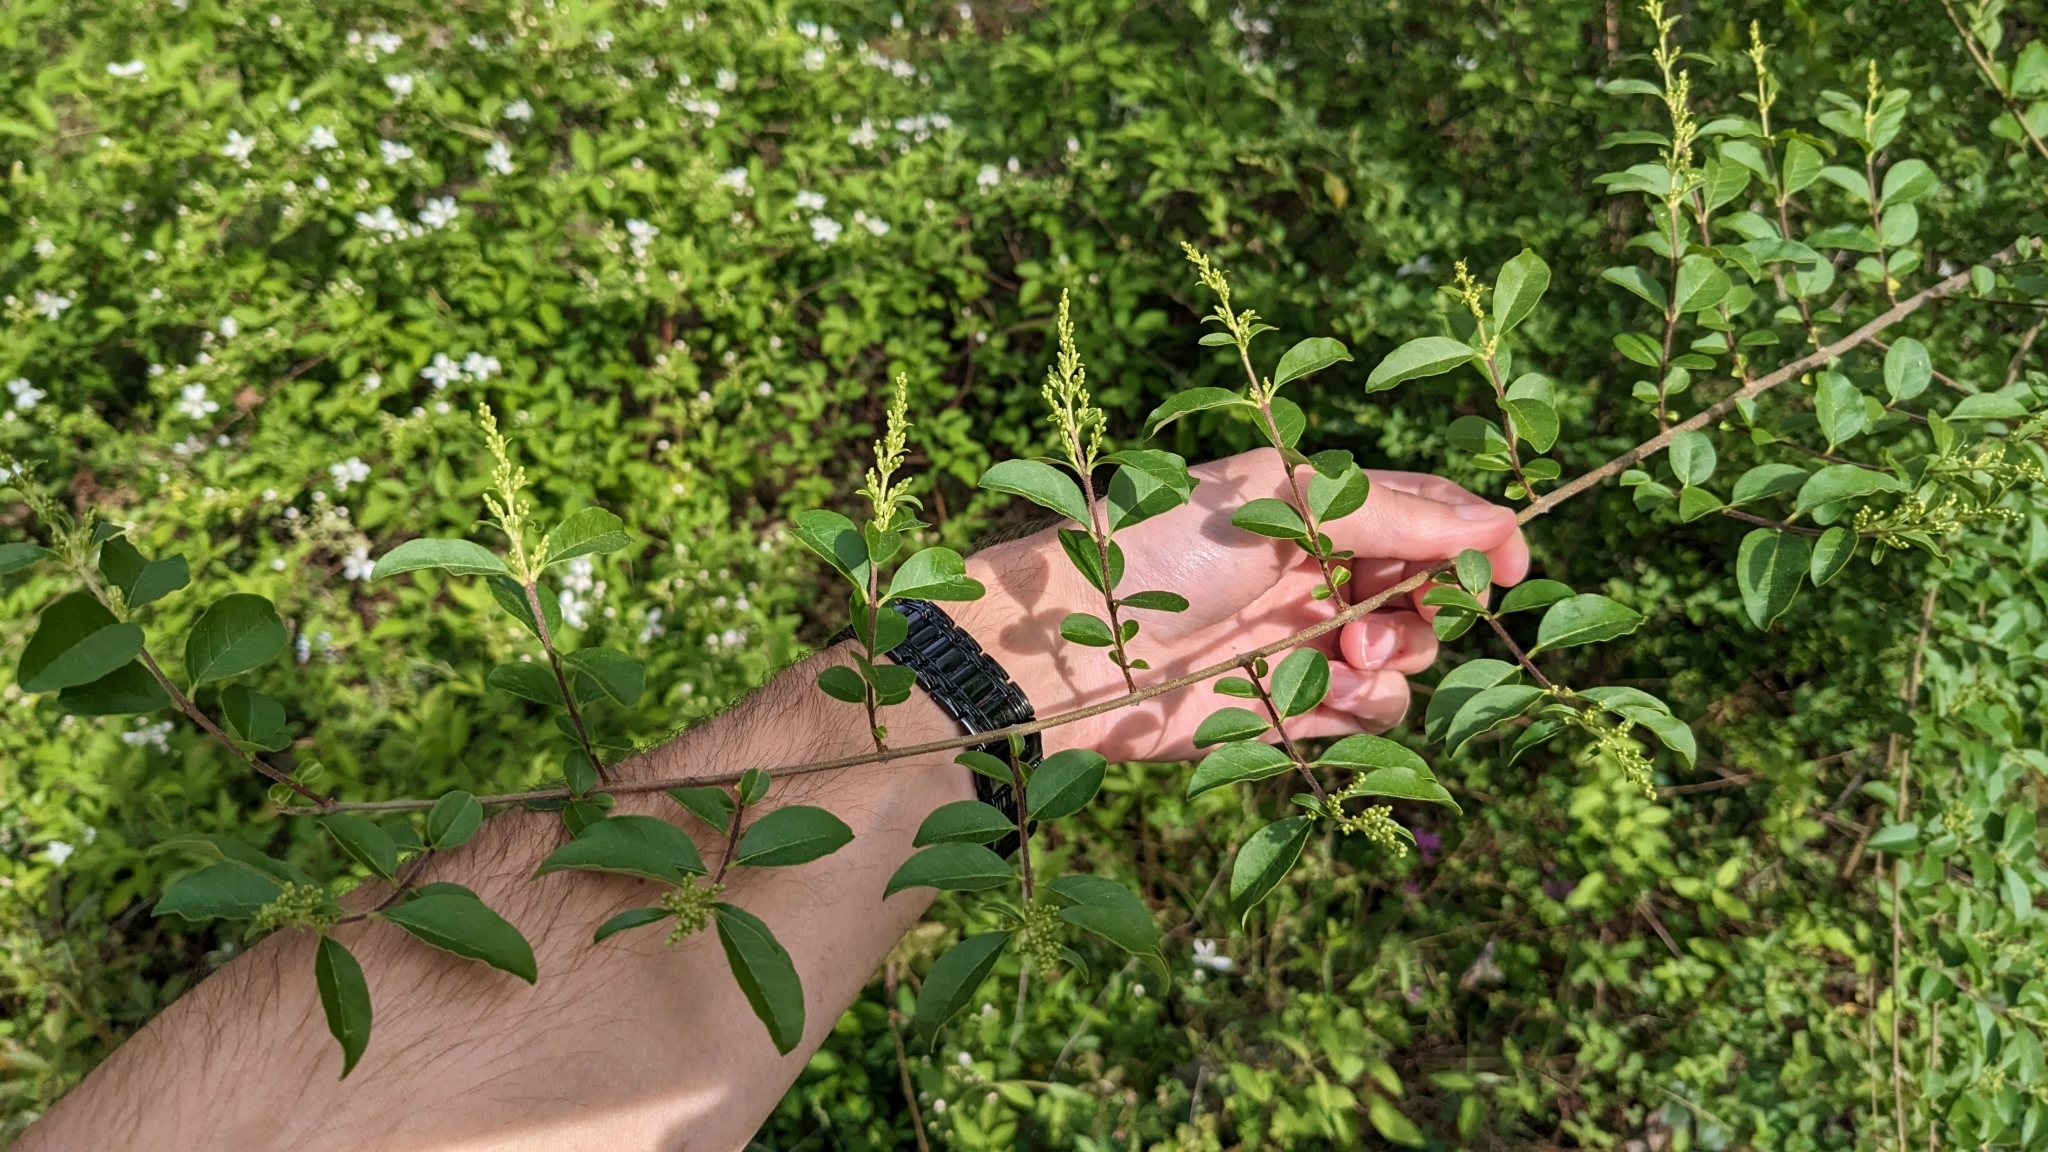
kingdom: Plantae
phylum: Tracheophyta
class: Magnoliopsida
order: Lamiales
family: Oleaceae
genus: Ligustrum
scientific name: Ligustrum sinense
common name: Chinese privet
